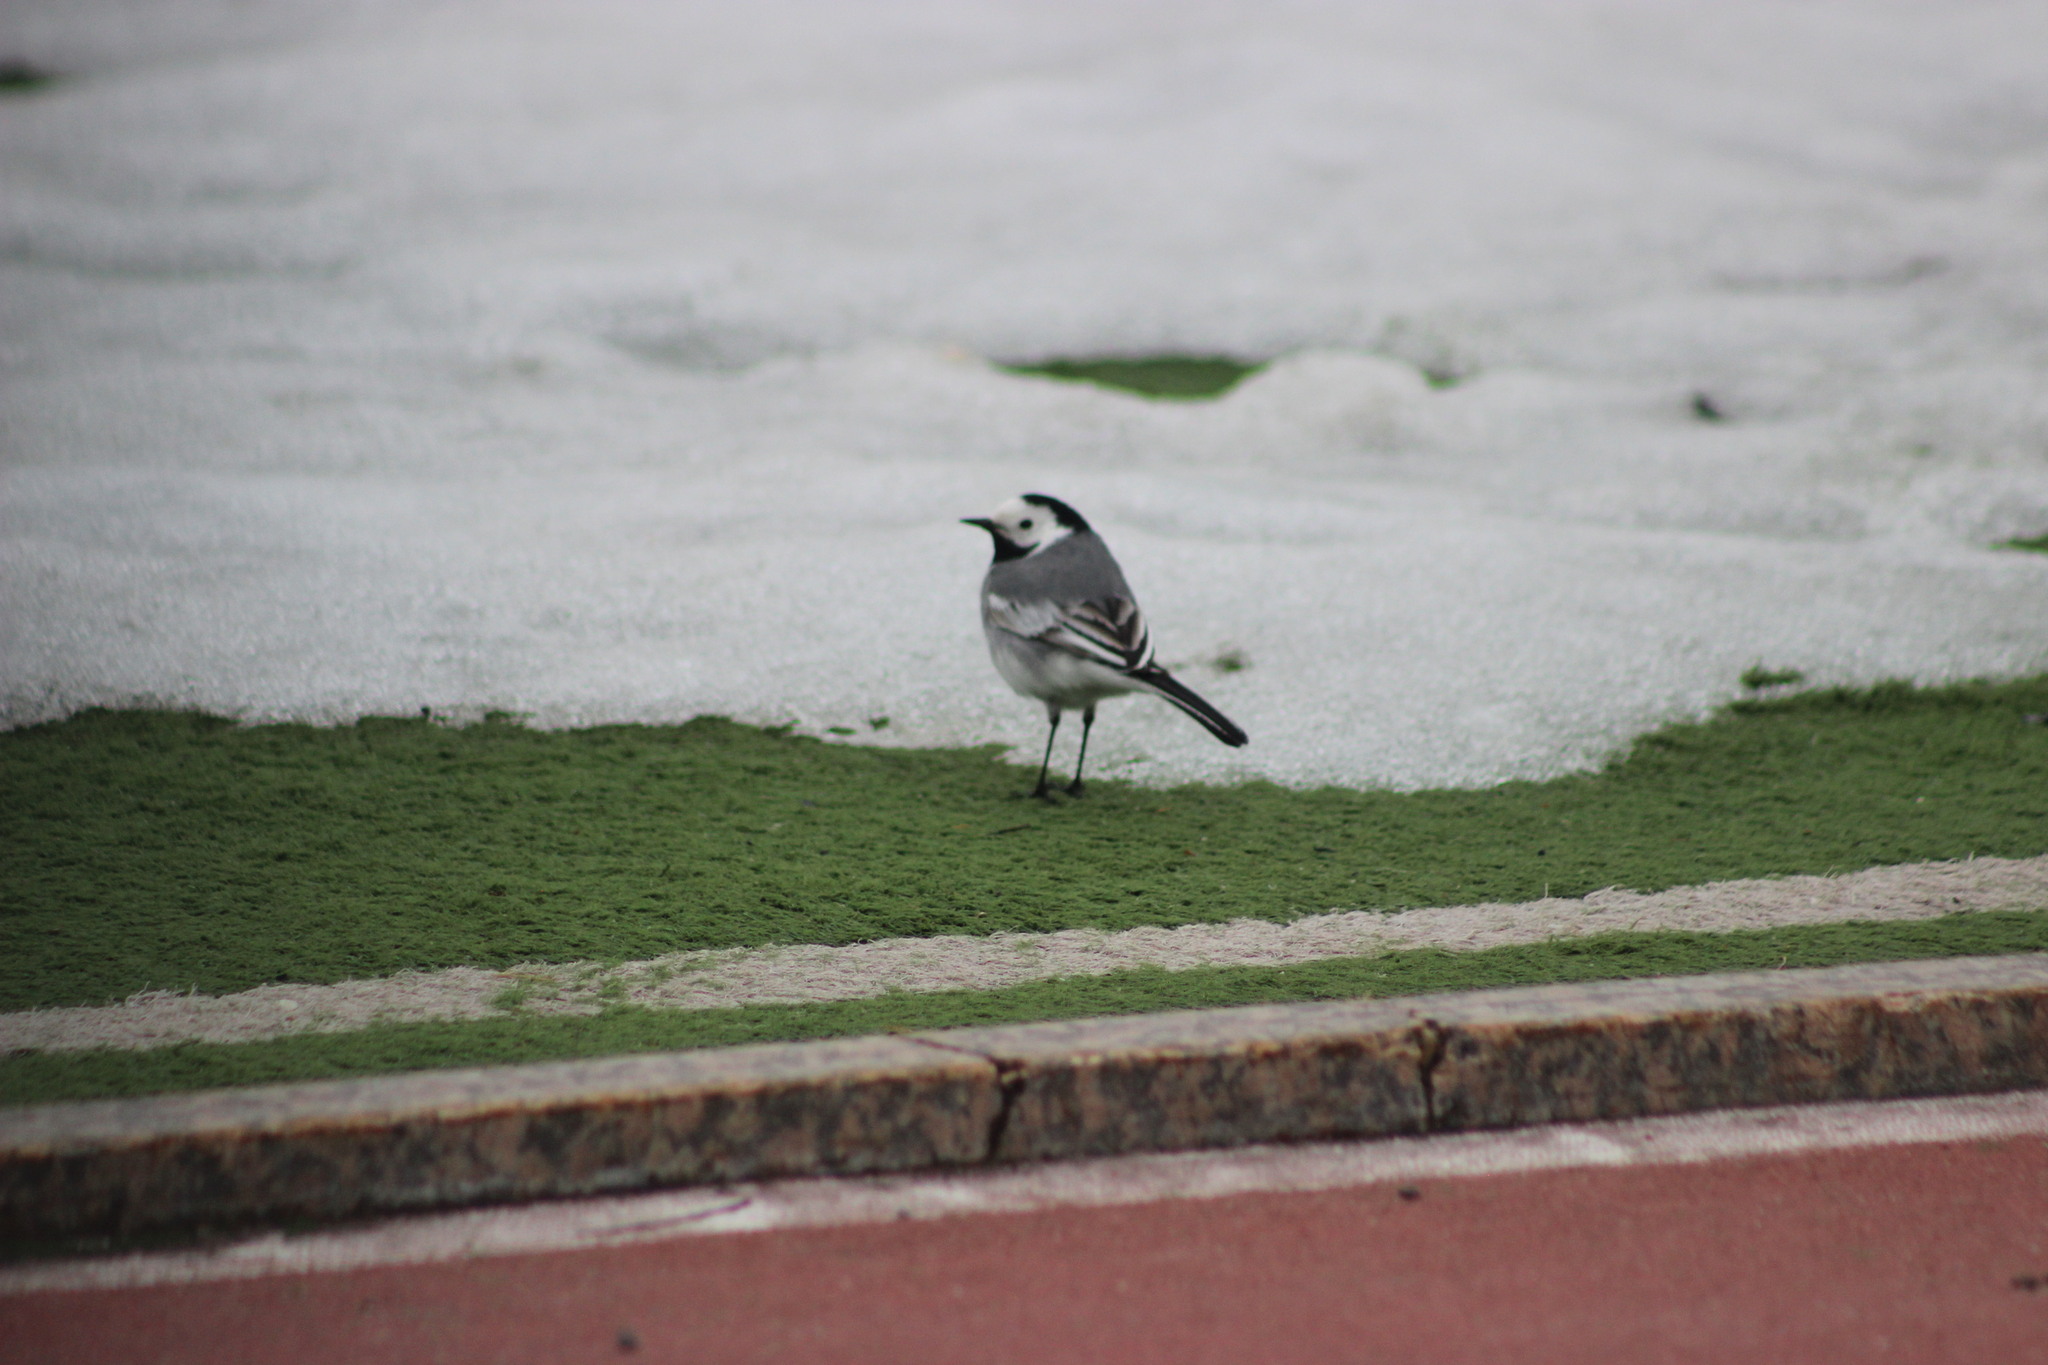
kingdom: Animalia
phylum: Chordata
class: Aves
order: Passeriformes
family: Motacillidae
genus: Motacilla
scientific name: Motacilla alba
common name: White wagtail
